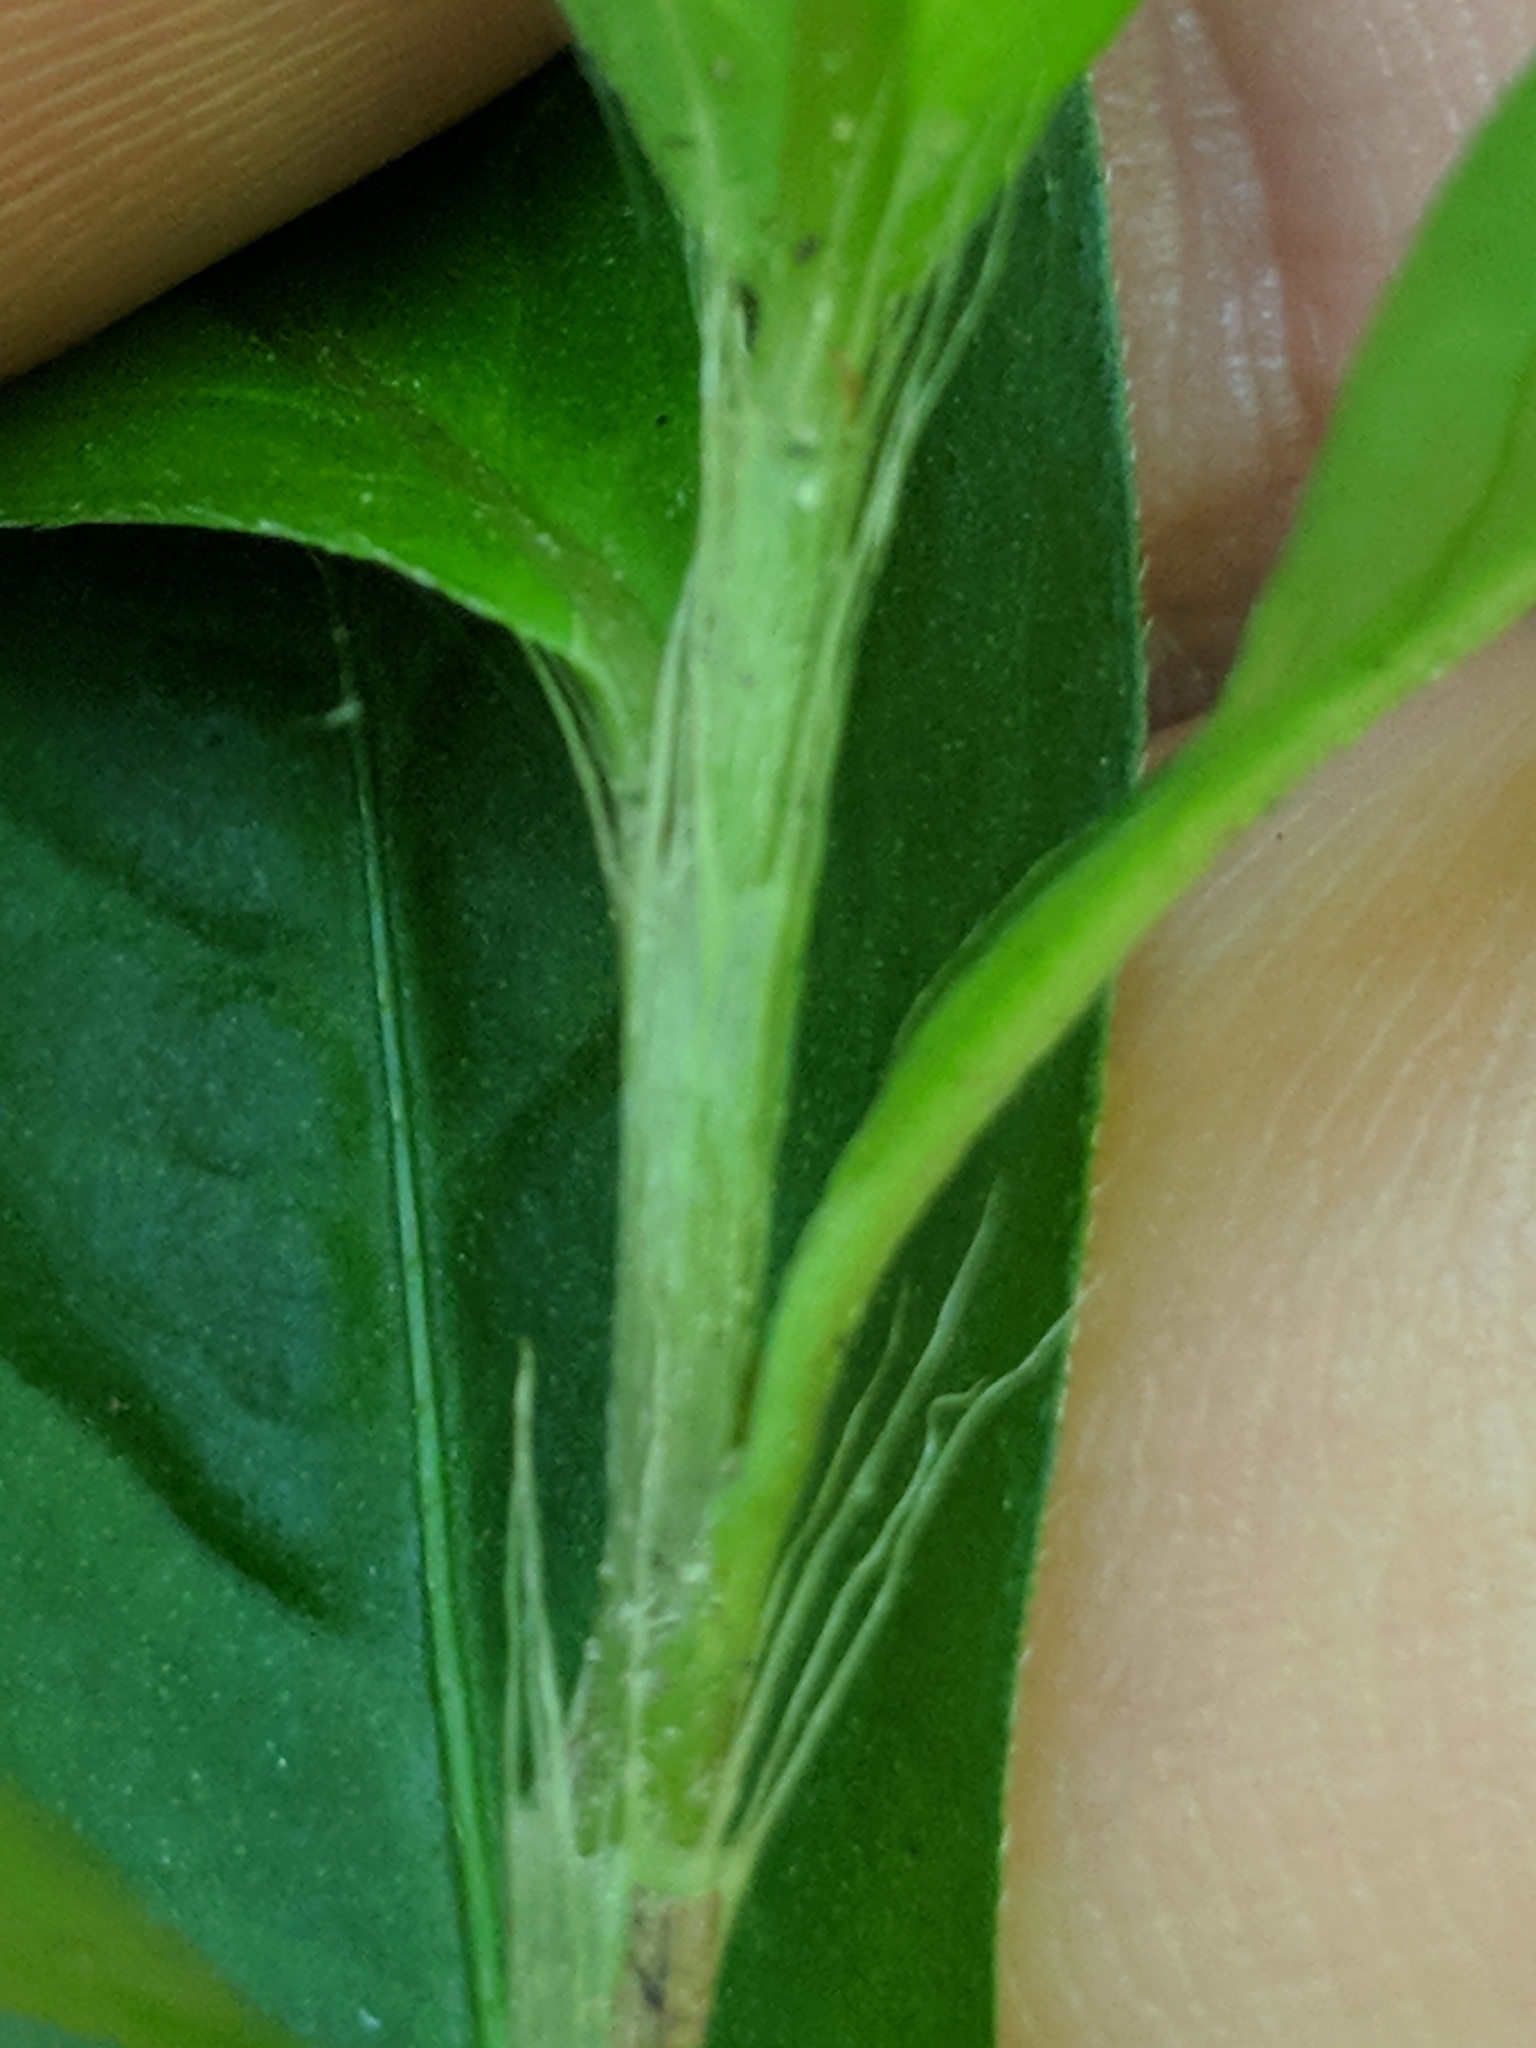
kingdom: Plantae
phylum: Tracheophyta
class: Magnoliopsida
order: Caryophyllales
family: Polygonaceae
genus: Persicaria
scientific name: Persicaria longiseta
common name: Bristly lady's-thumb
